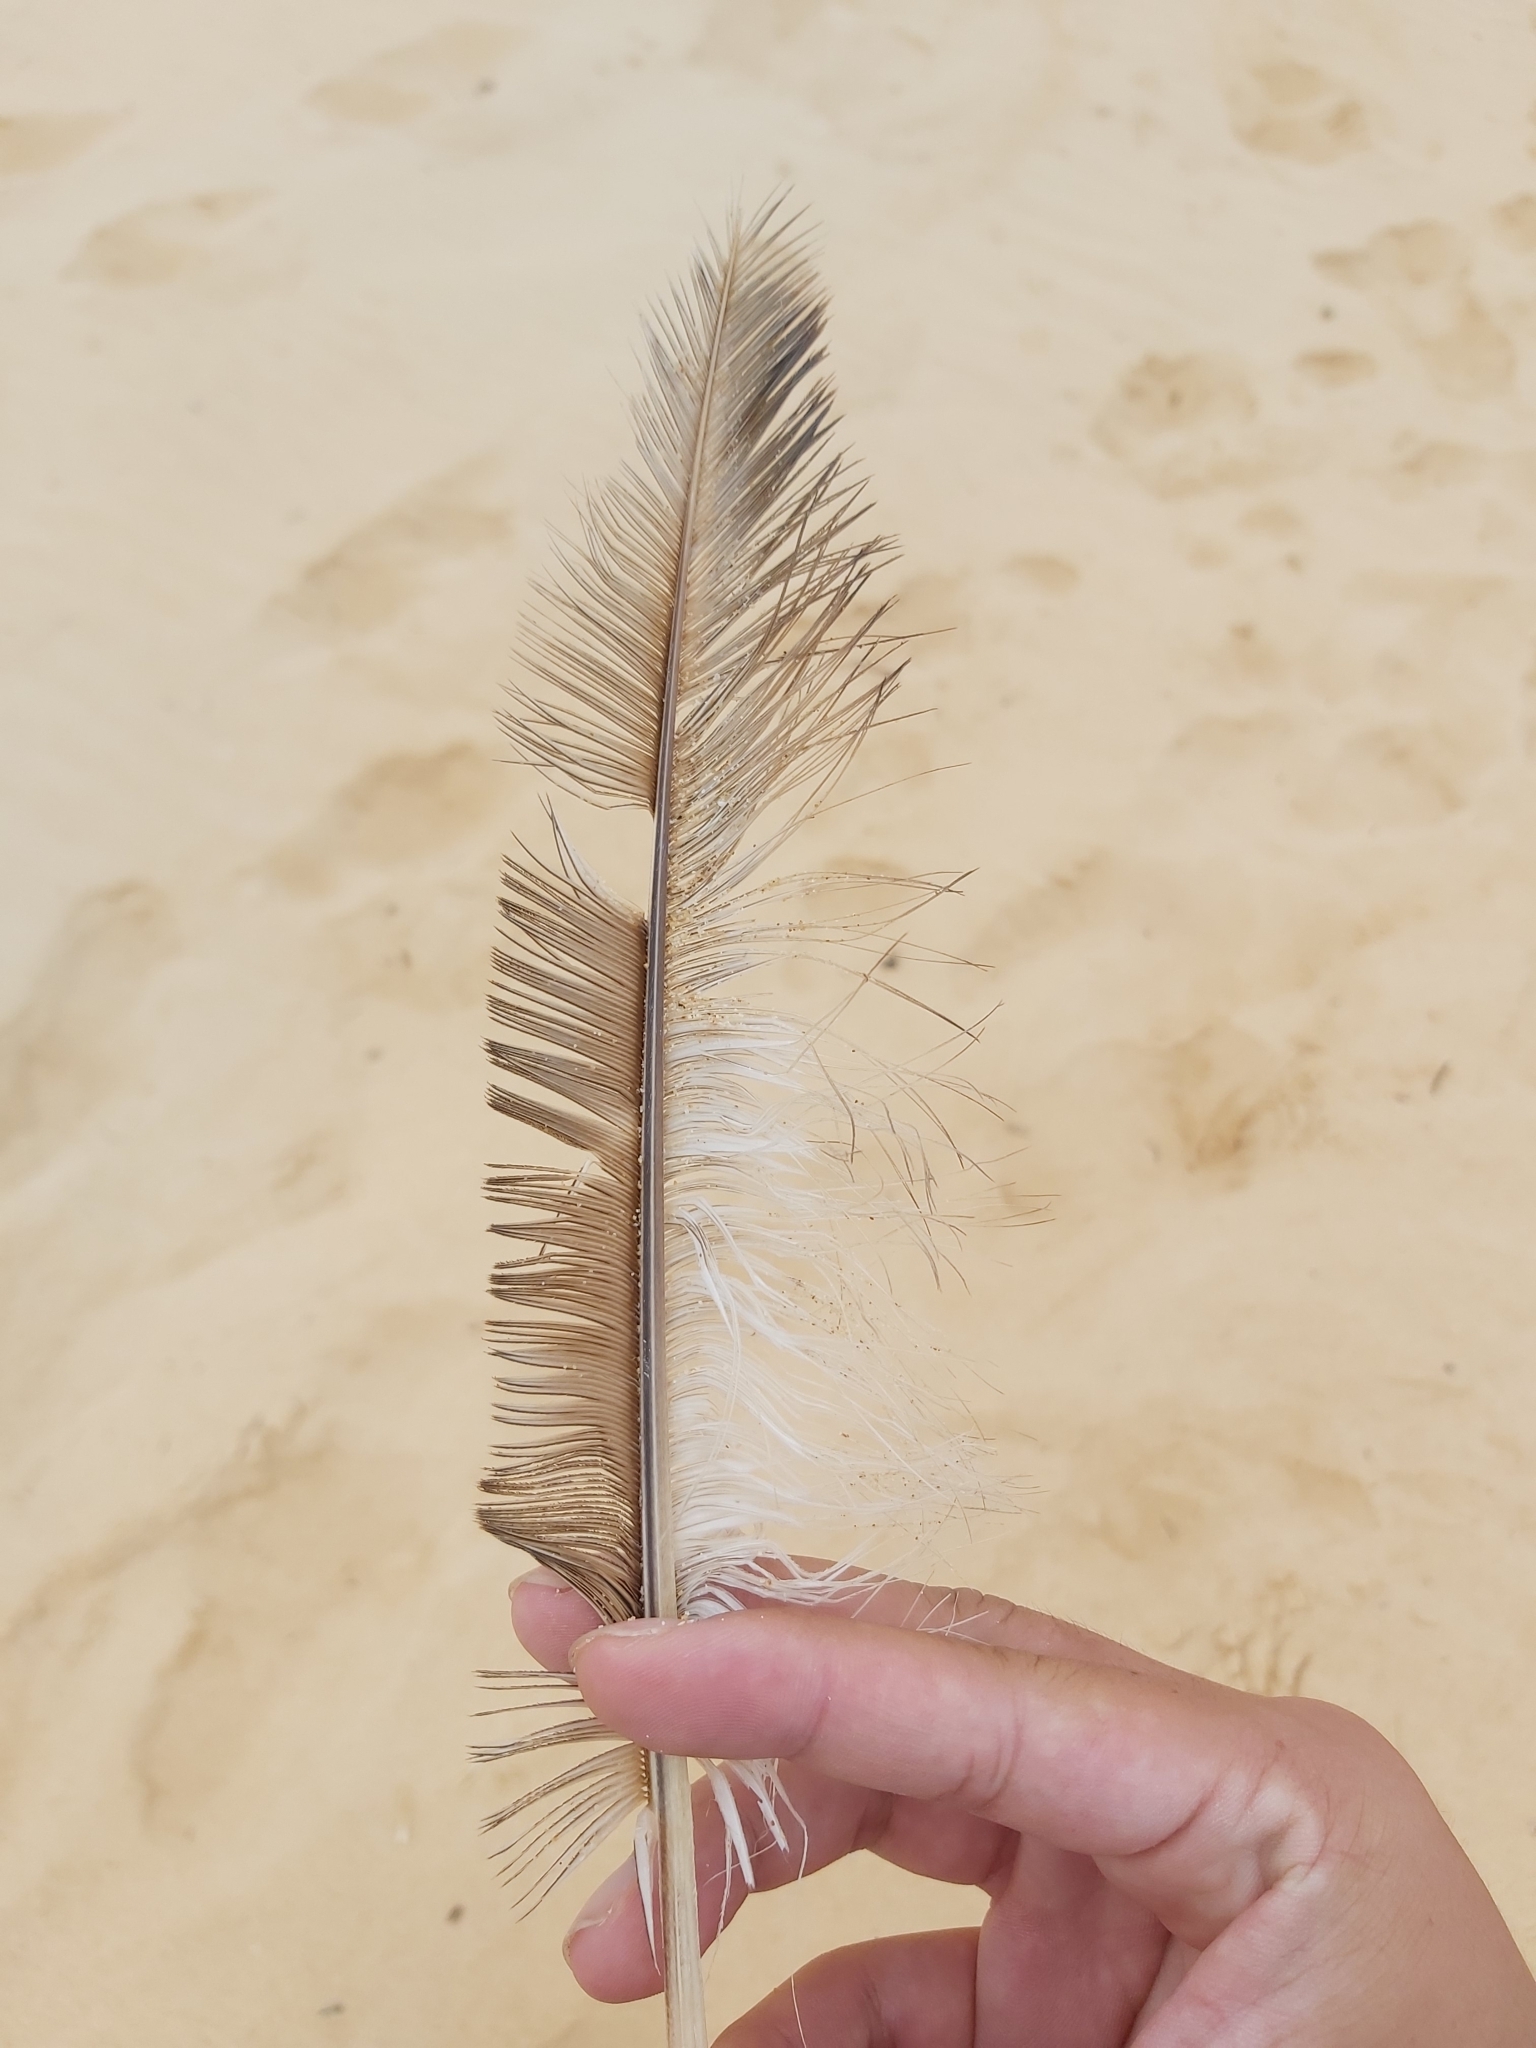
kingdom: Animalia
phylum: Chordata
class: Aves
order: Suliformes
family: Sulidae
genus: Morus
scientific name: Morus serrator
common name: Australasian gannet
